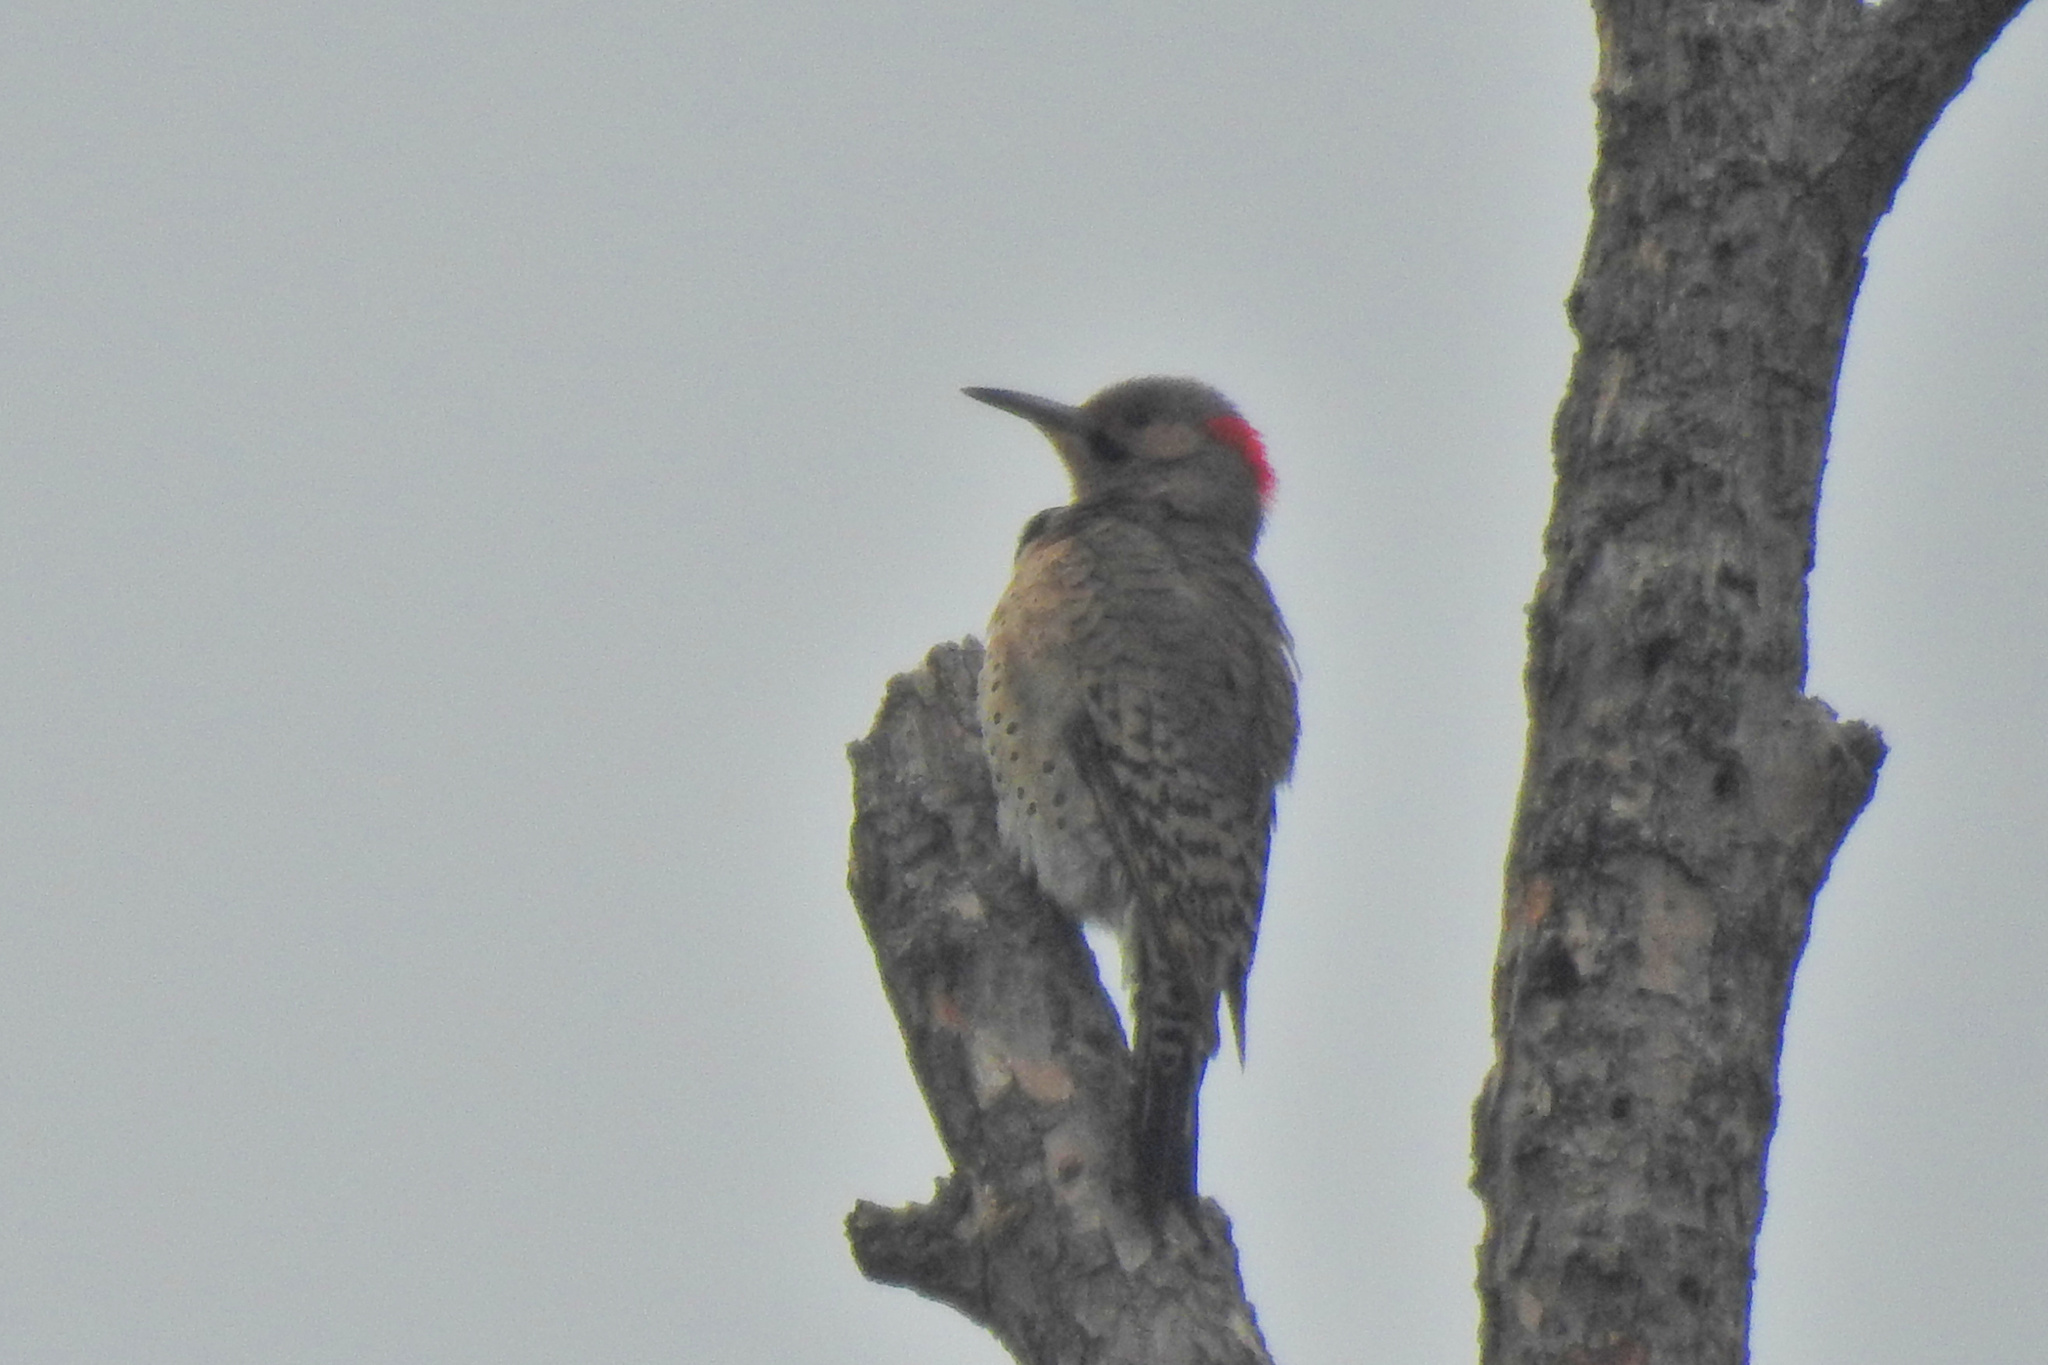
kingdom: Animalia
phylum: Chordata
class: Aves
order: Piciformes
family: Picidae
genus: Colaptes
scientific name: Colaptes auratus
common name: Northern flicker
